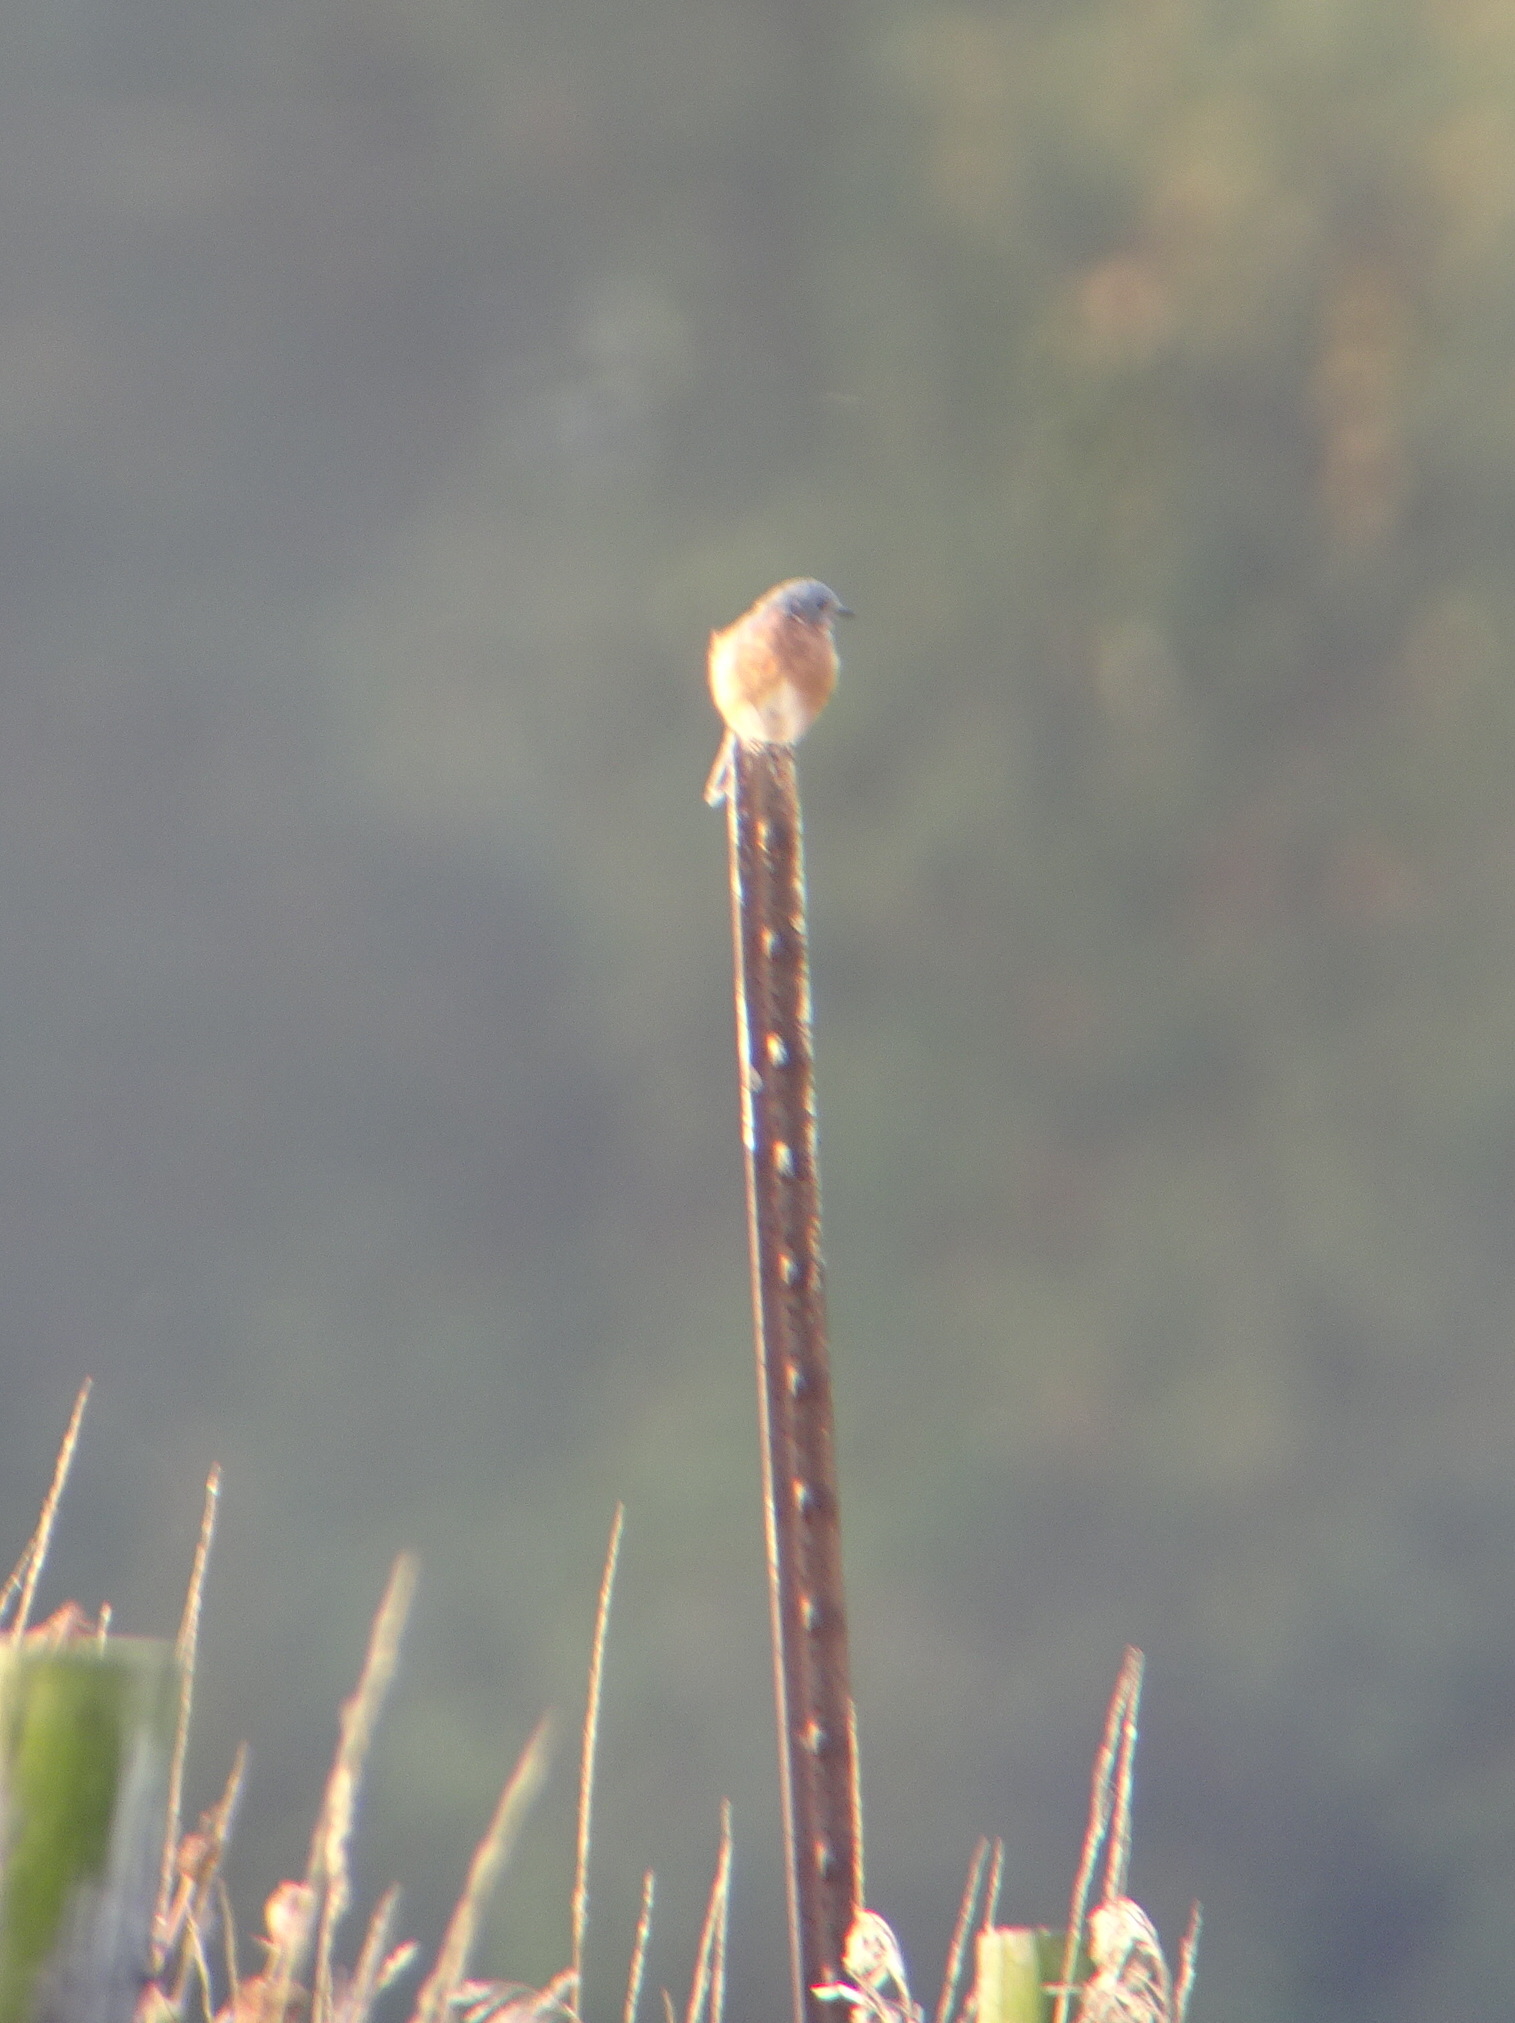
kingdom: Animalia
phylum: Chordata
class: Aves
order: Passeriformes
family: Turdidae
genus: Sialia
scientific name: Sialia sialis
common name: Eastern bluebird
